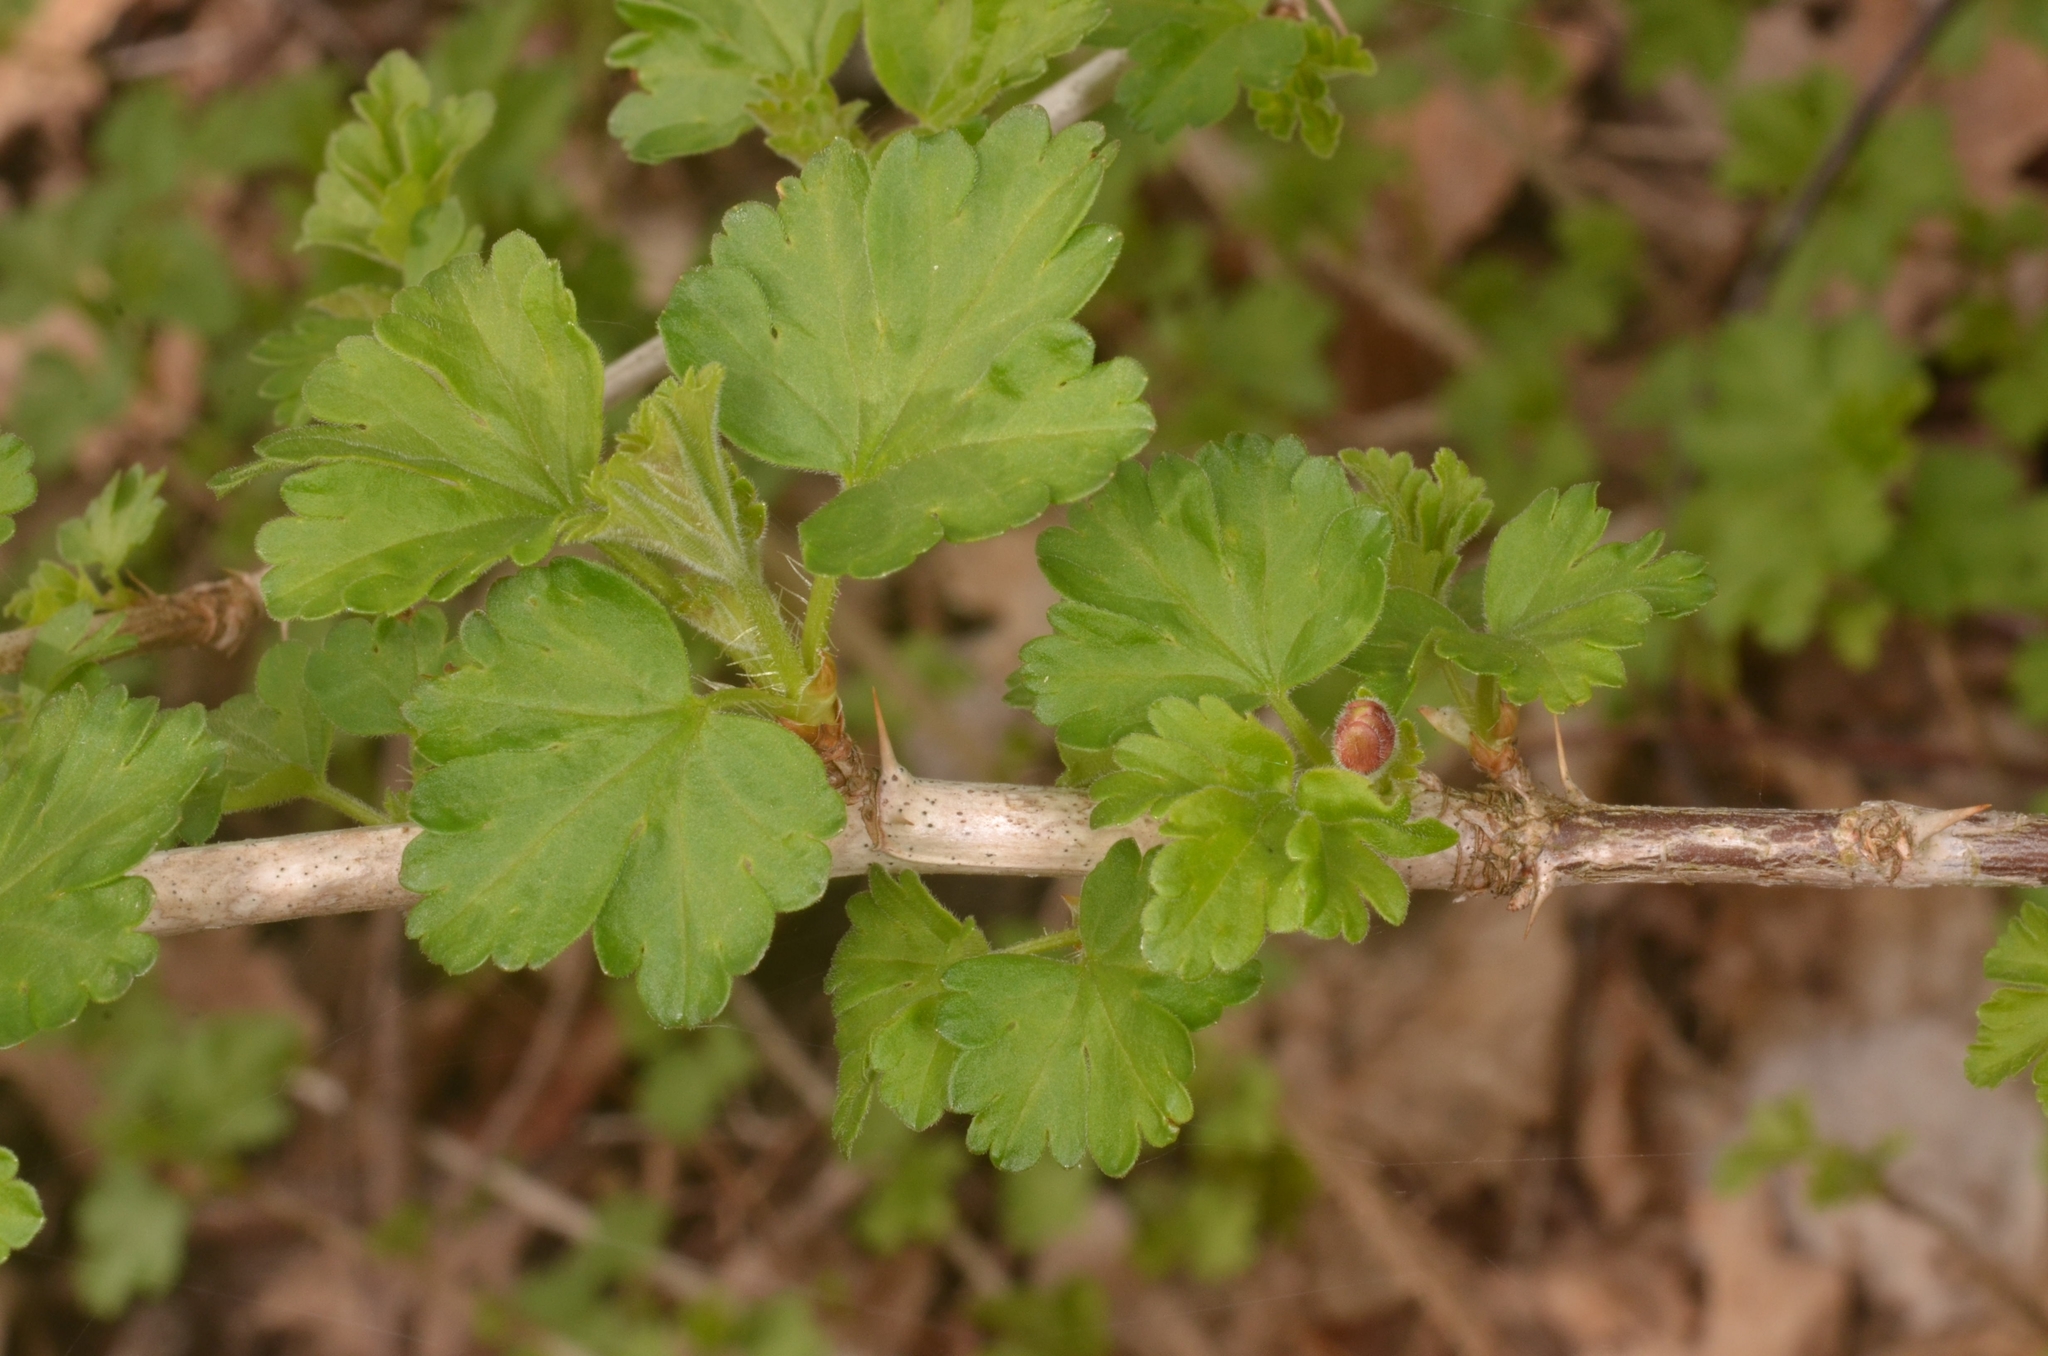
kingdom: Plantae
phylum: Tracheophyta
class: Magnoliopsida
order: Saxifragales
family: Grossulariaceae
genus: Ribes
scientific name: Ribes uva-crispa
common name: Gooseberry
